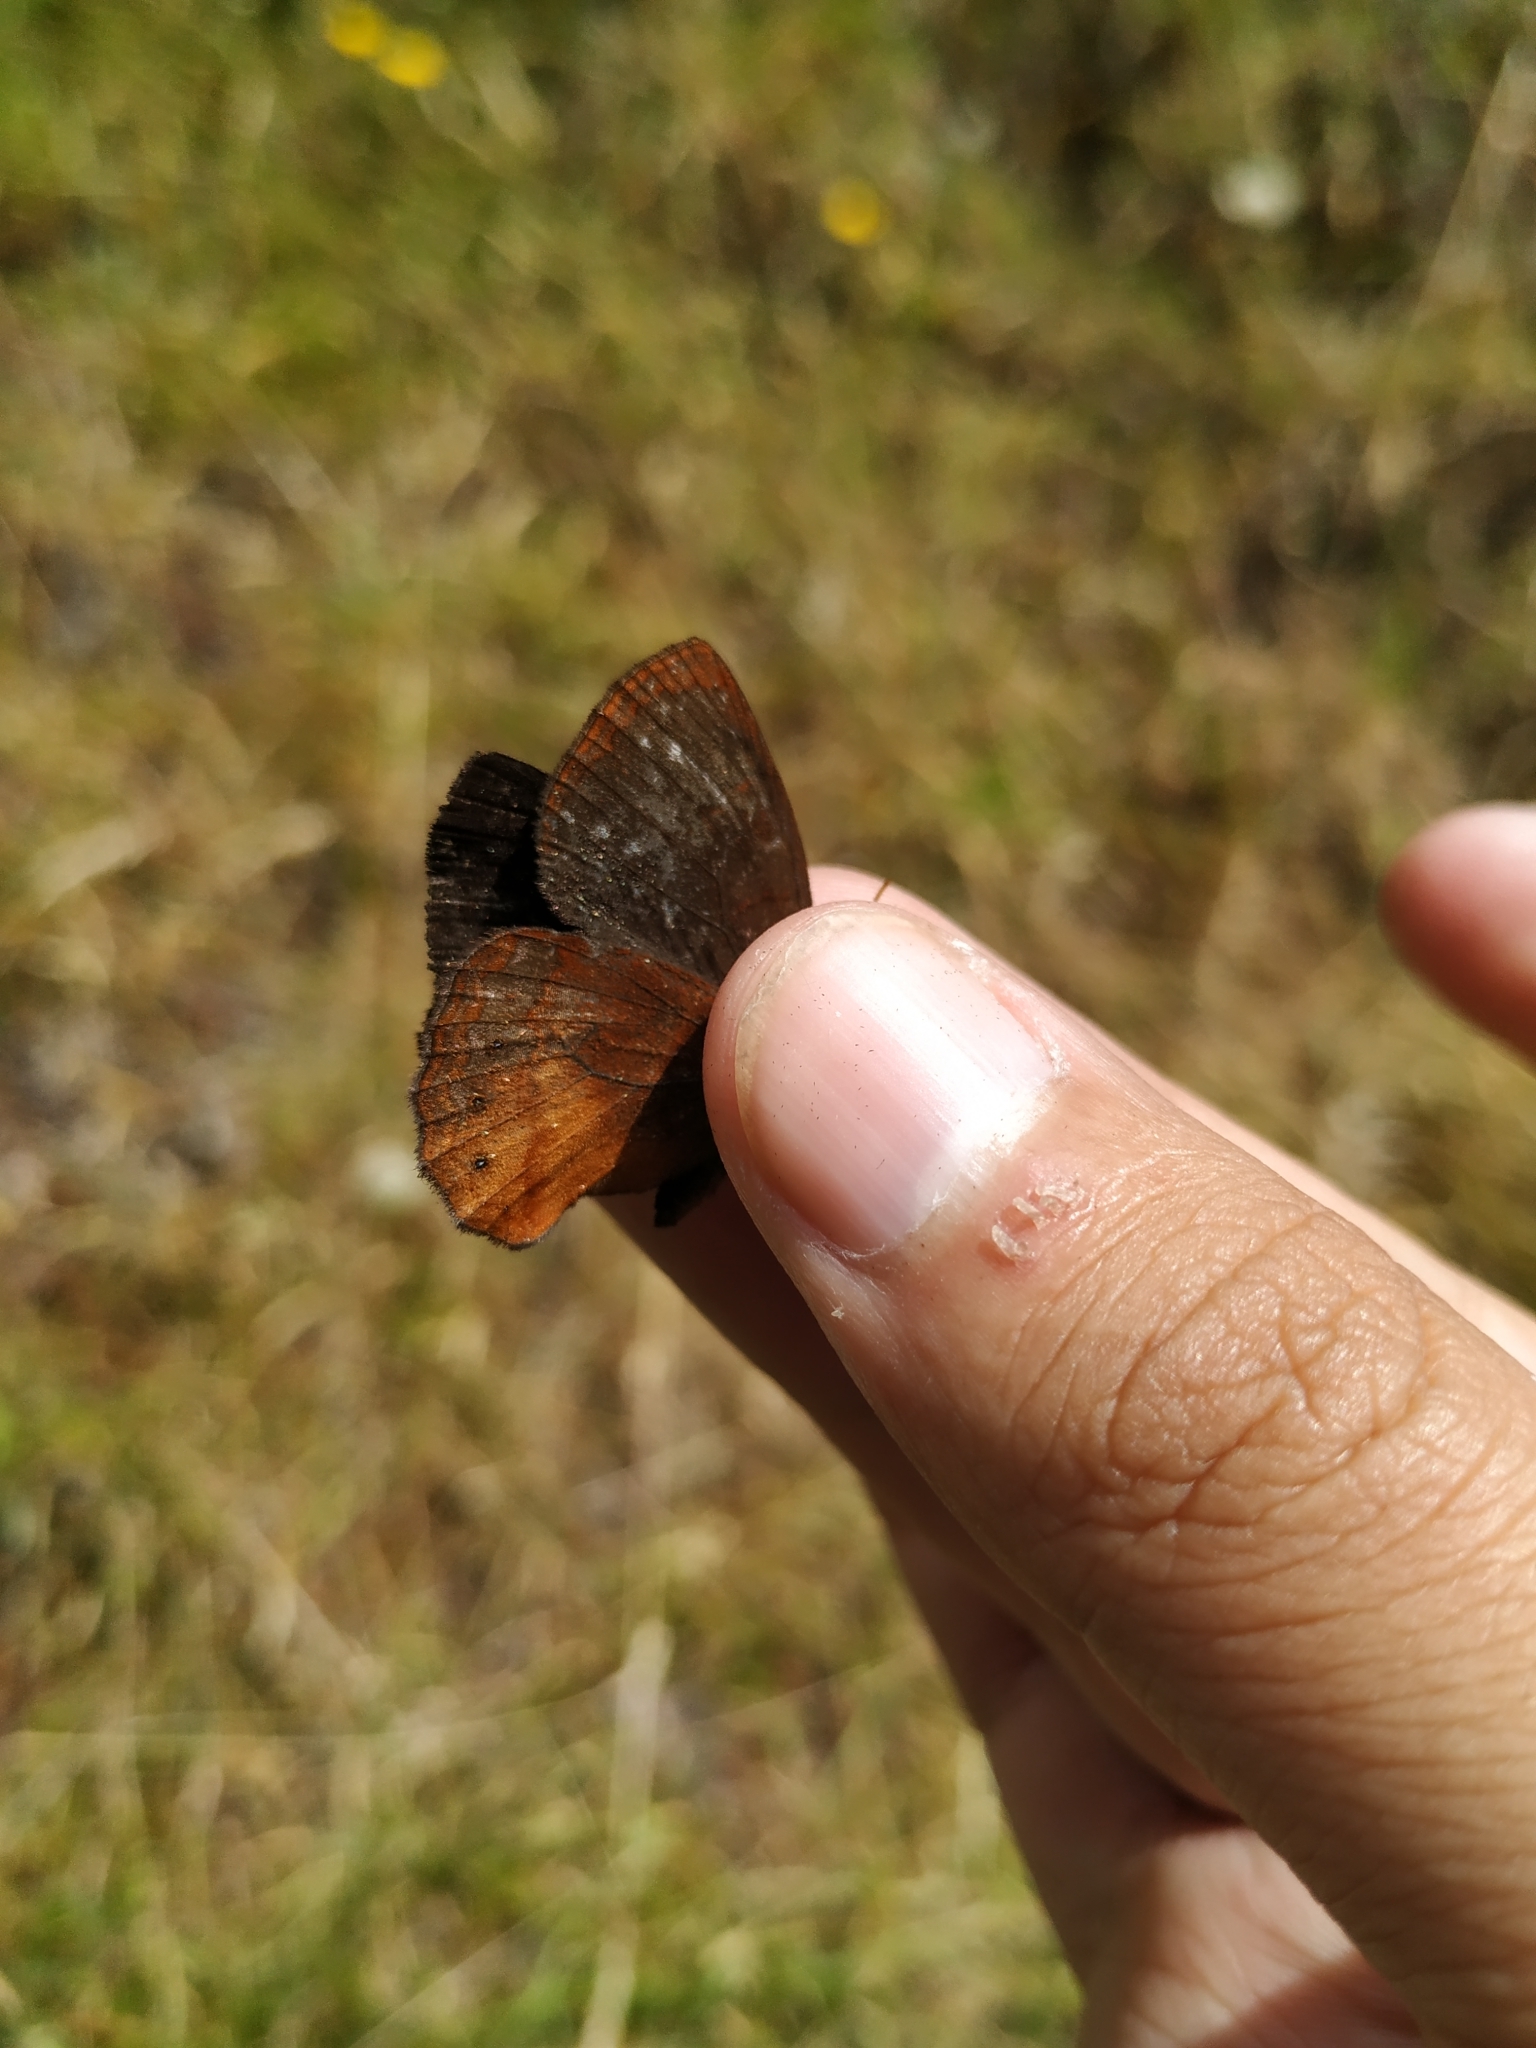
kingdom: Animalia
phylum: Arthropoda
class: Insecta
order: Lepidoptera
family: Nymphalidae
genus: Eretris
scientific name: Eretris apuleja
